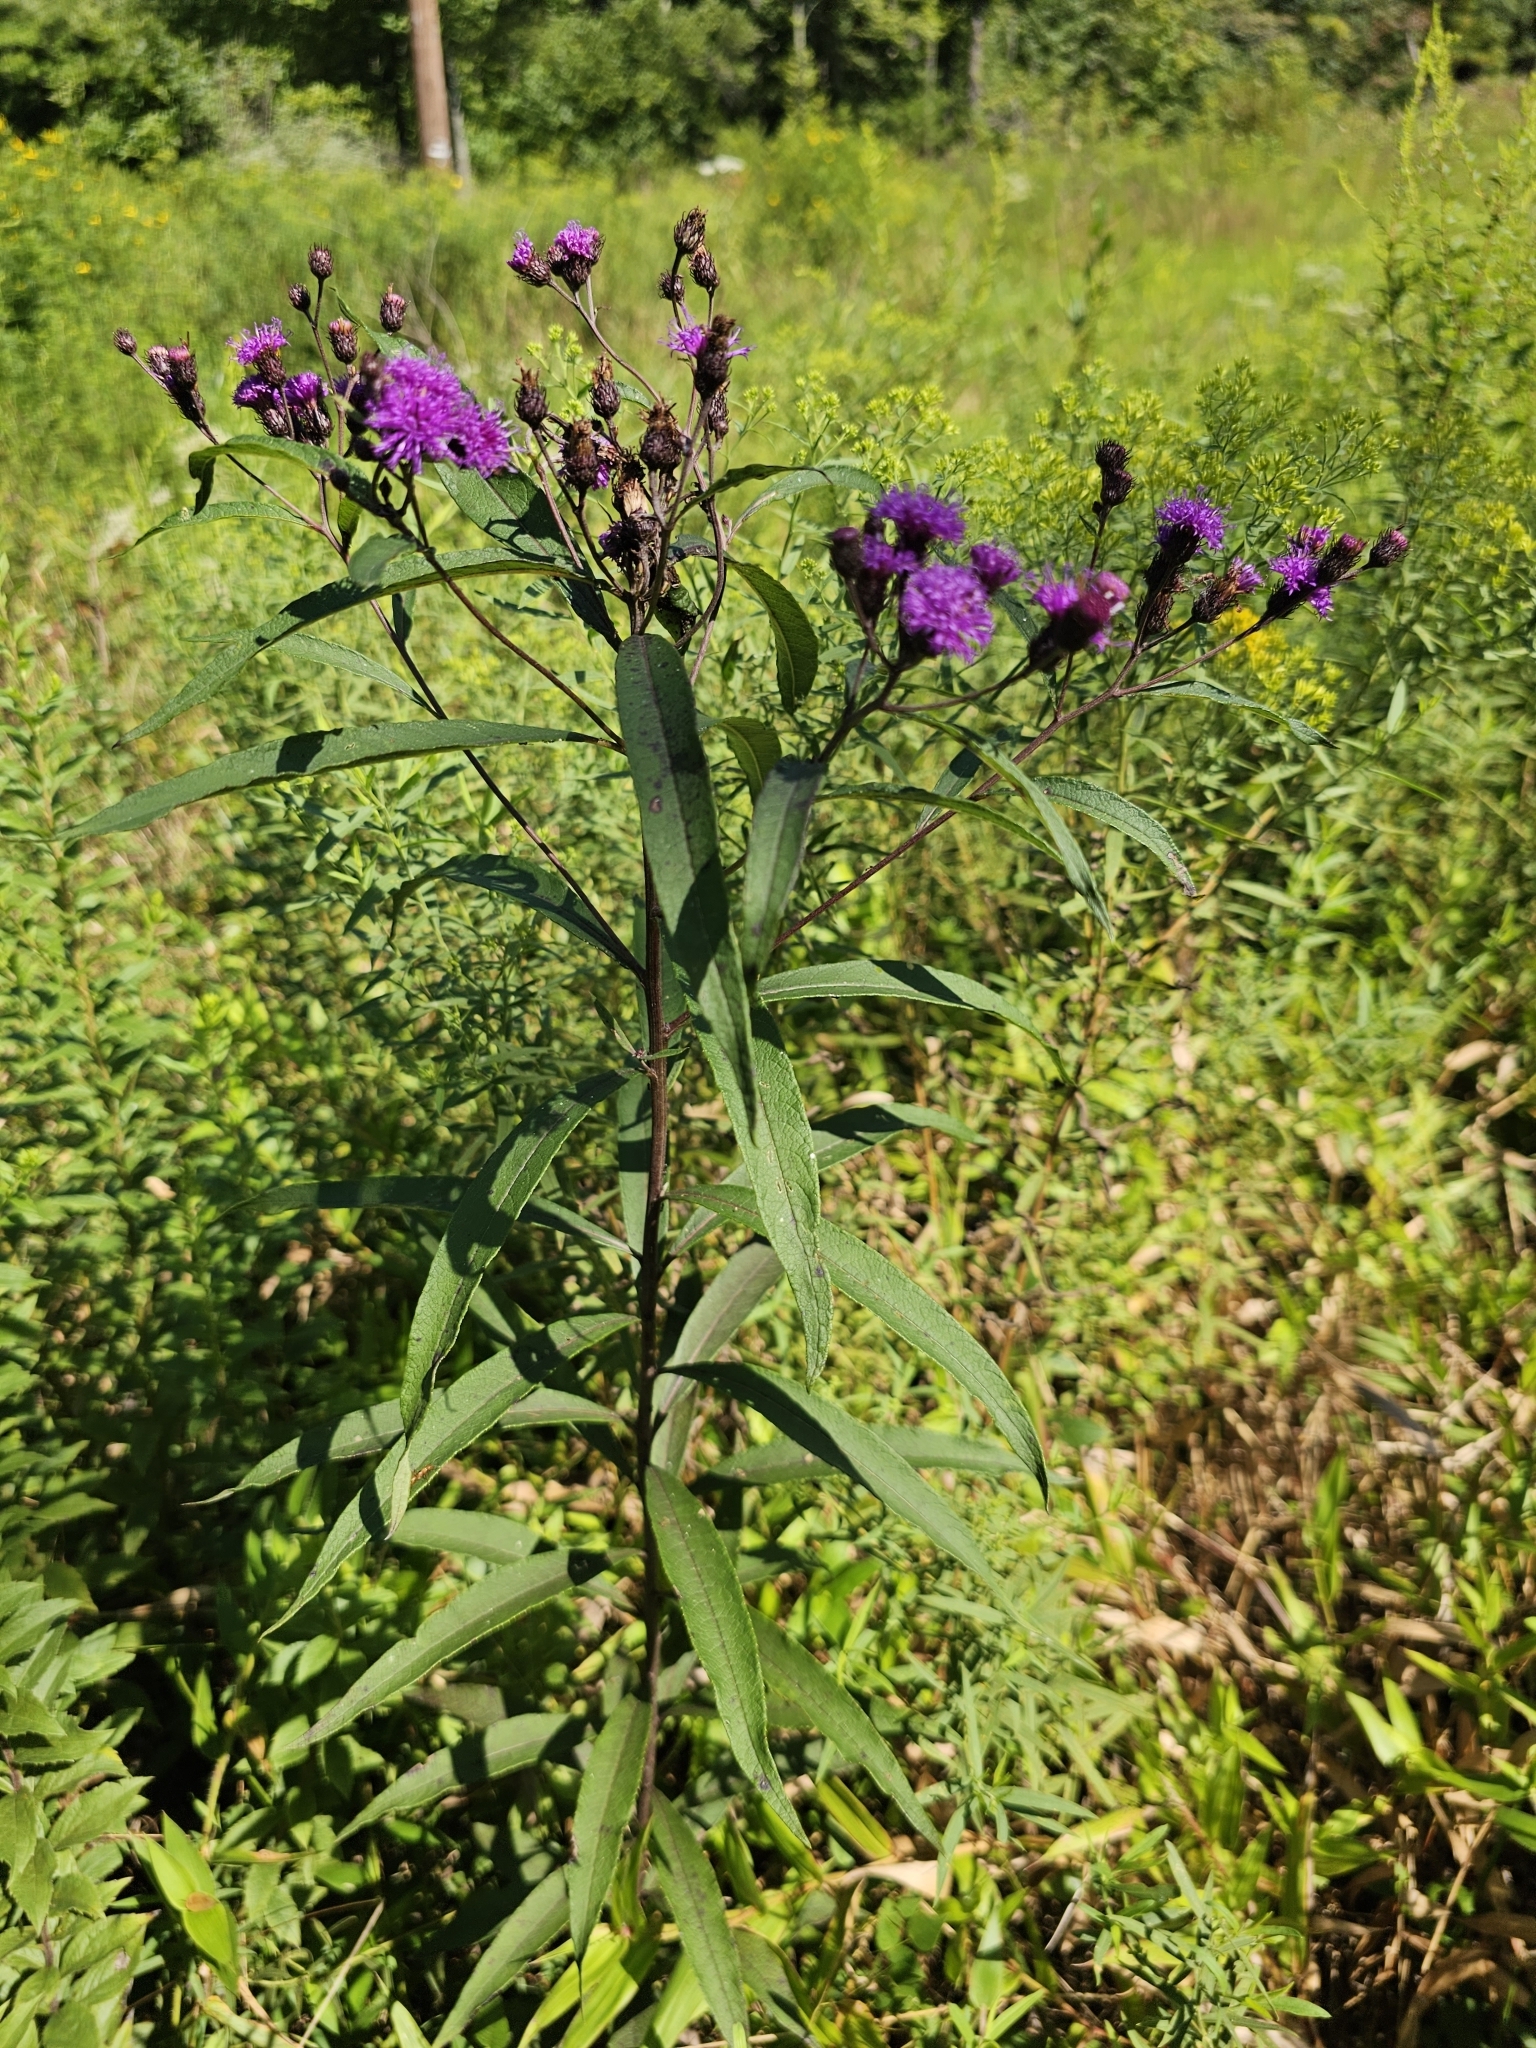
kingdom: Plantae
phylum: Tracheophyta
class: Magnoliopsida
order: Asterales
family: Asteraceae
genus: Vernonia
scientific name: Vernonia noveboracensis
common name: New york ironweed
